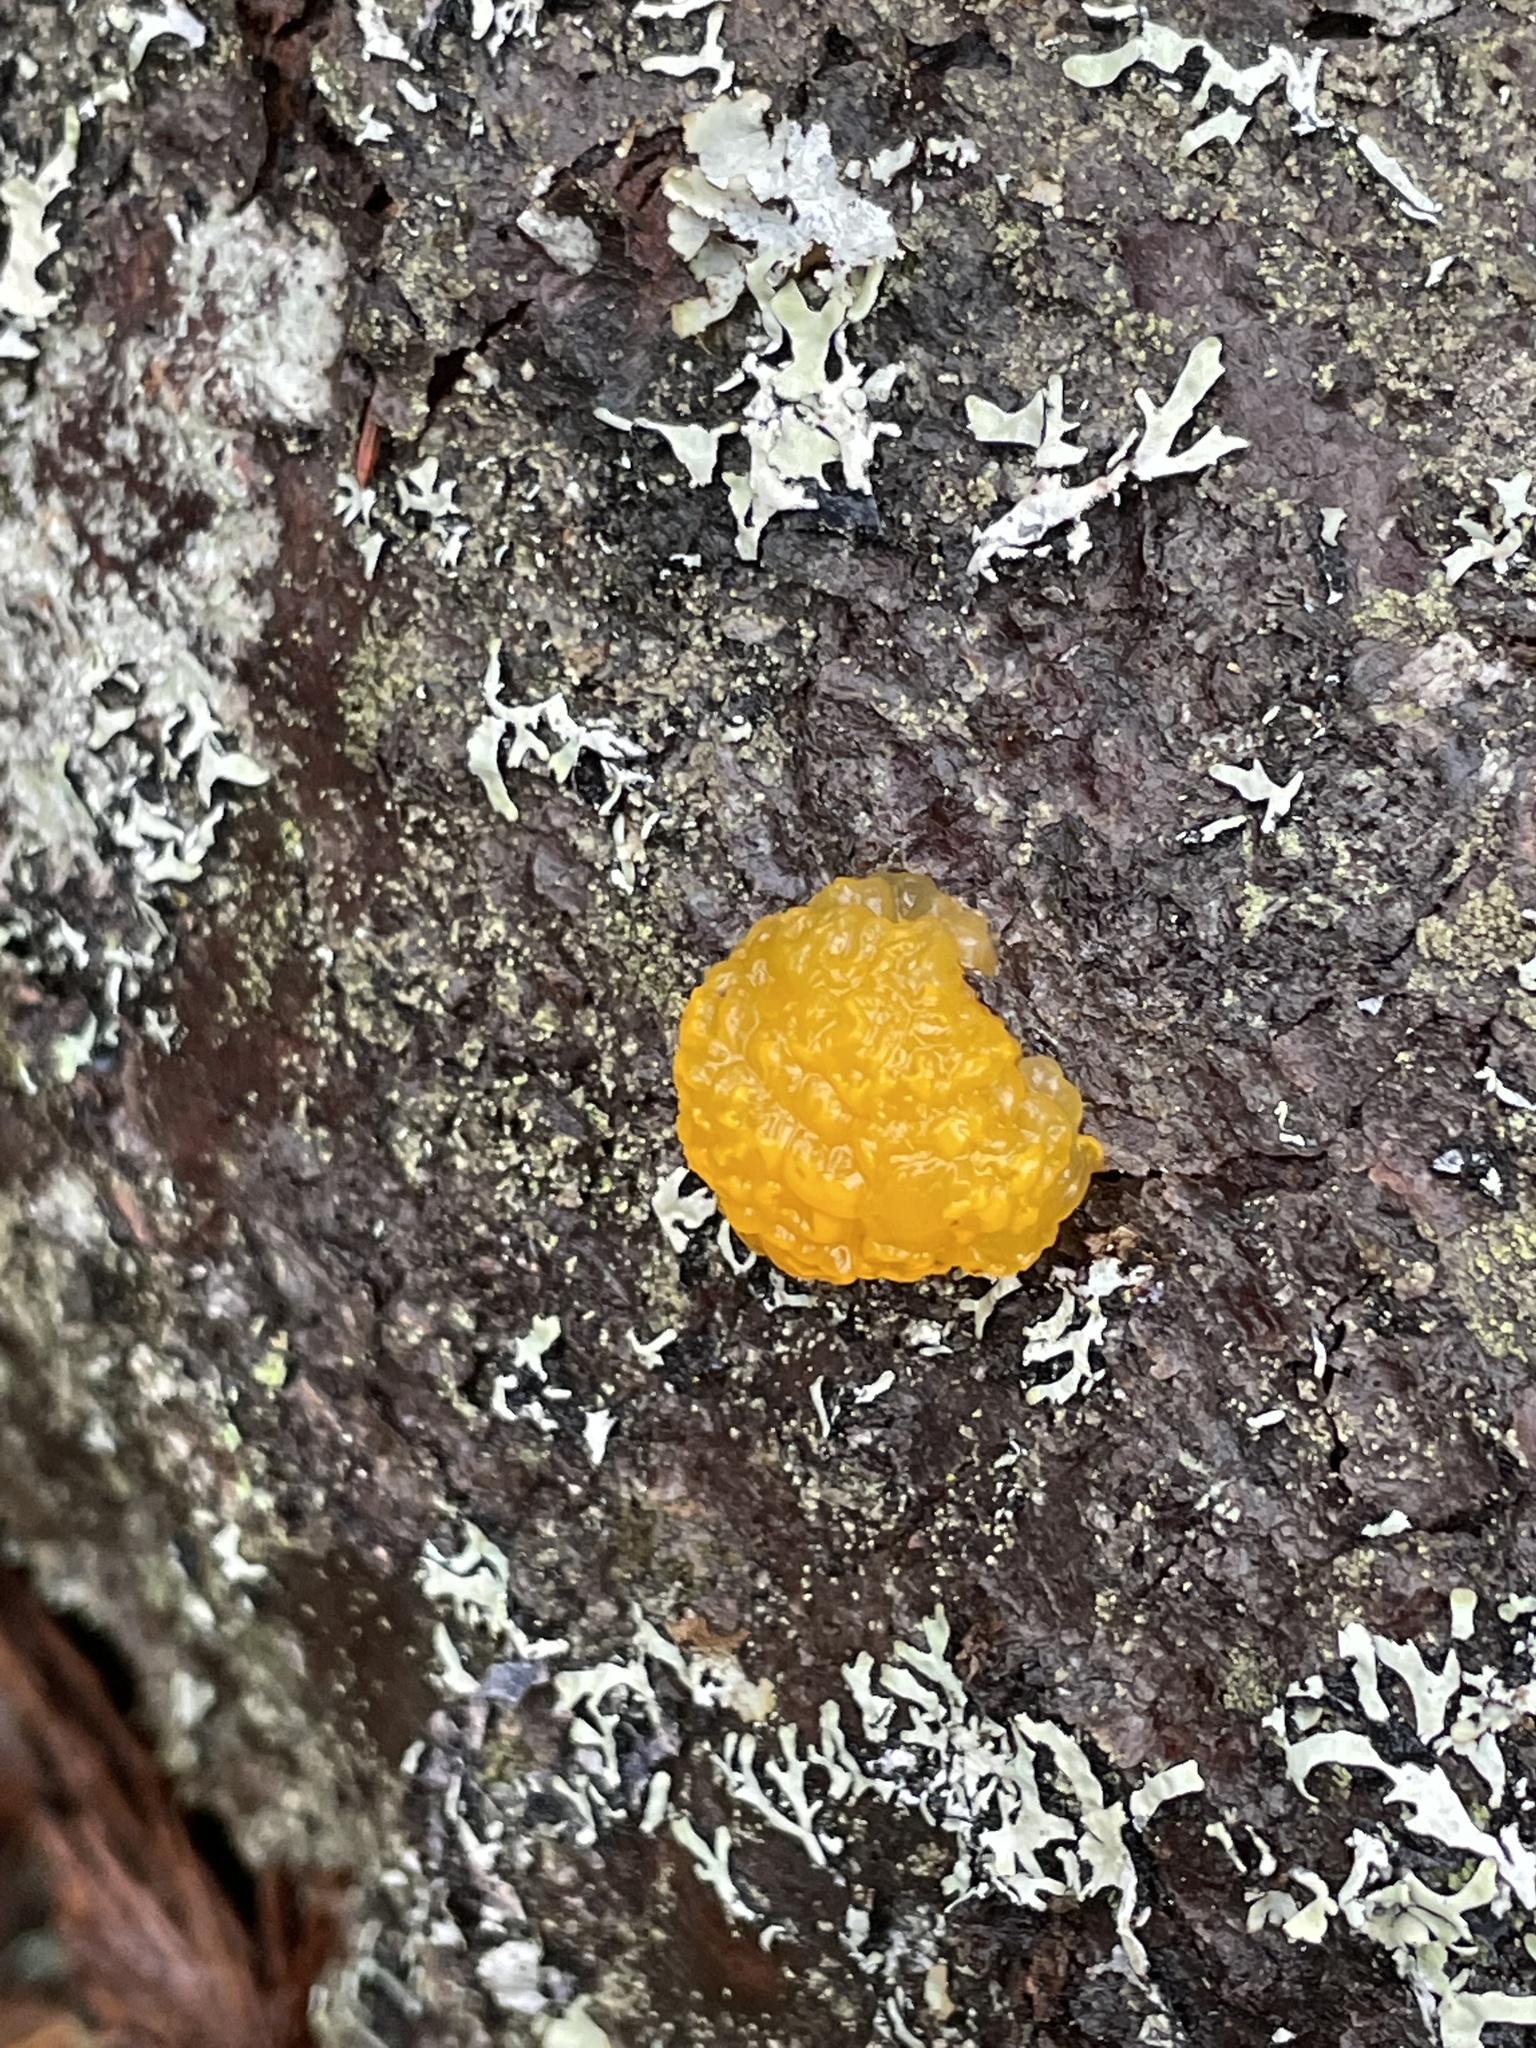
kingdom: Fungi
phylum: Basidiomycota
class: Dacrymycetes
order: Dacrymycetales
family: Dacrymycetaceae
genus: Dacrymyces
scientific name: Dacrymyces chrysospermus
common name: Orange jelly spot
